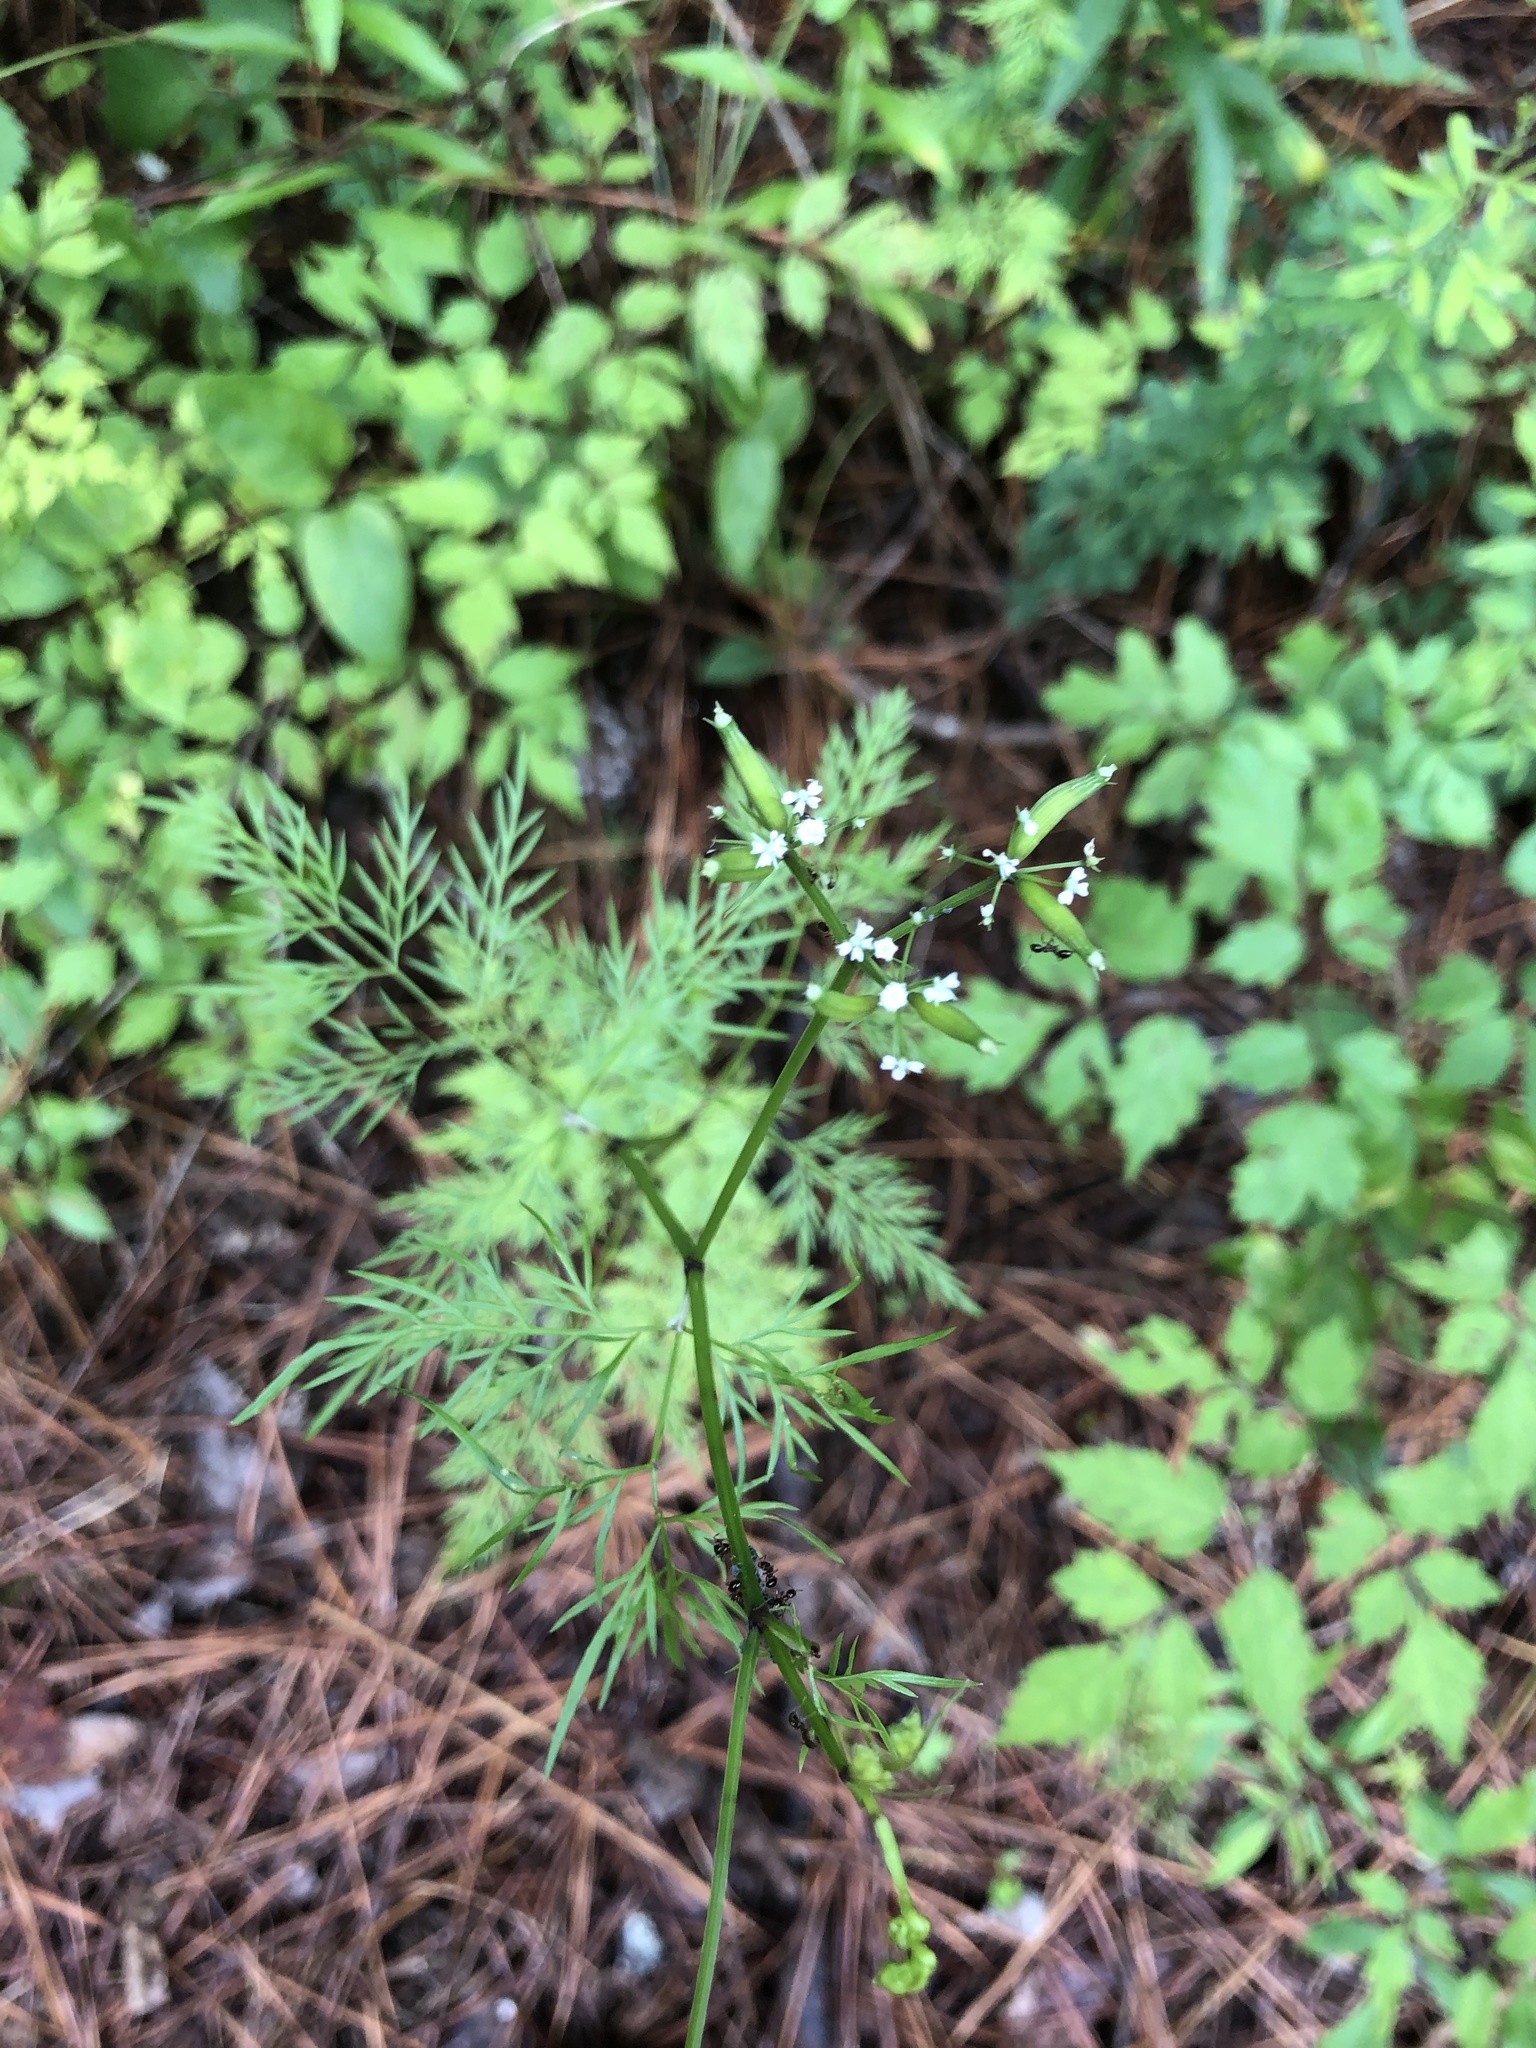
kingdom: Plantae
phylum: Tracheophyta
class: Magnoliopsida
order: Apiales
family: Apiaceae
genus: Trepocarpus
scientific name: Trepocarpus aethusae
